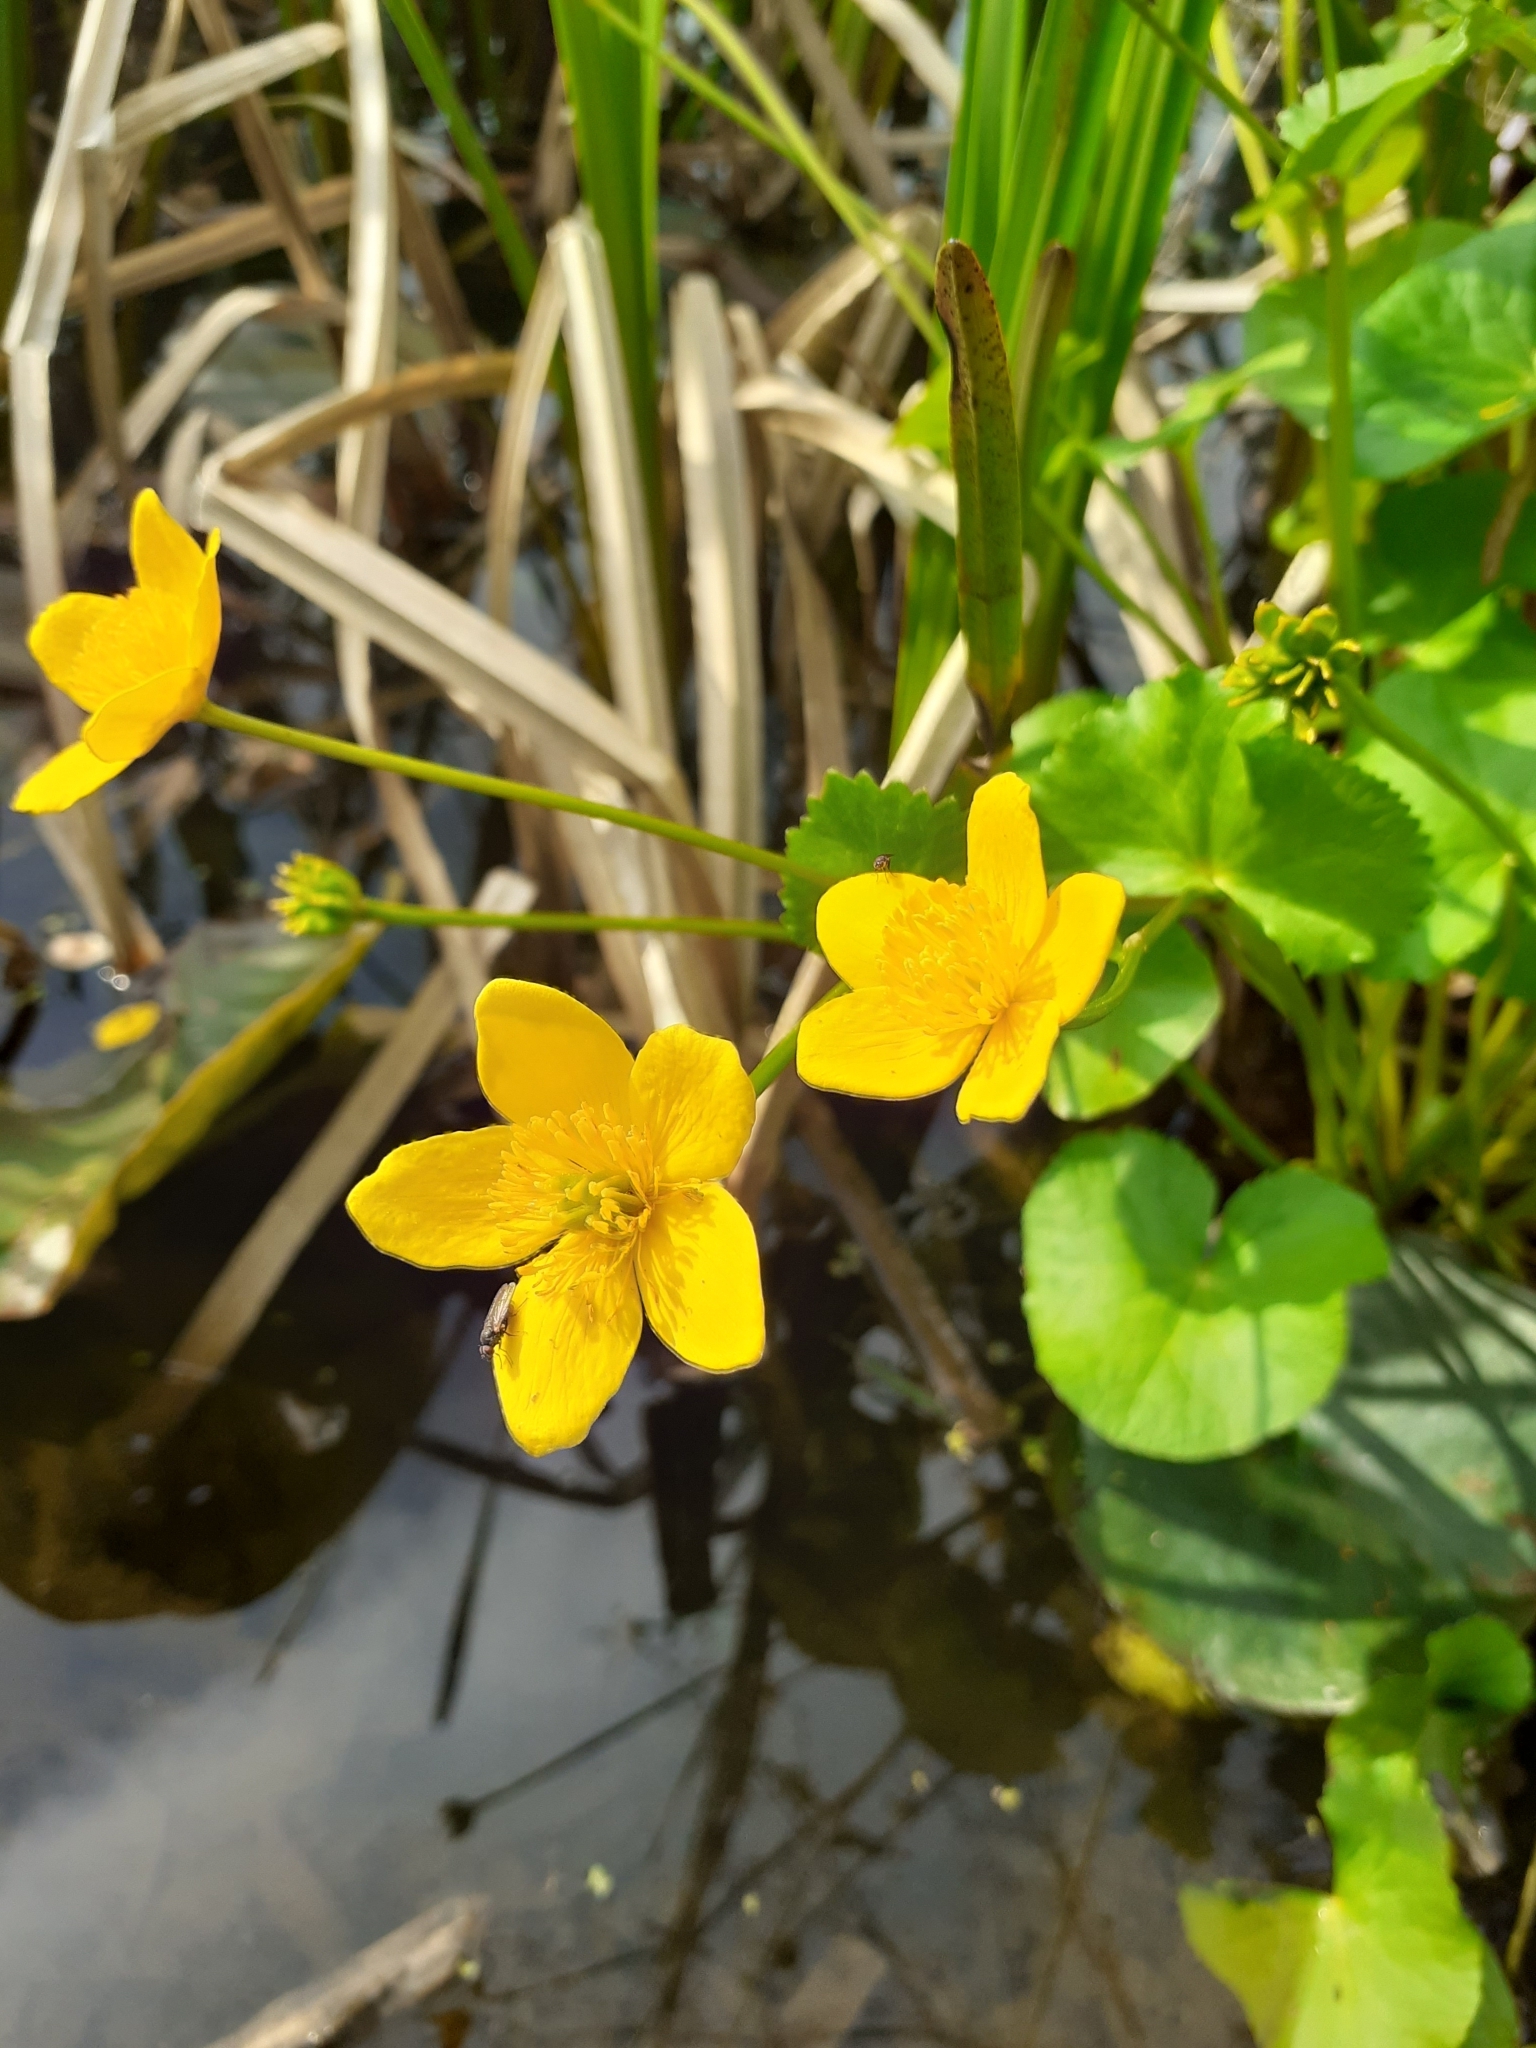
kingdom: Plantae
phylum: Tracheophyta
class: Magnoliopsida
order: Ranunculales
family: Ranunculaceae
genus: Caltha
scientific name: Caltha palustris
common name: Marsh marigold
